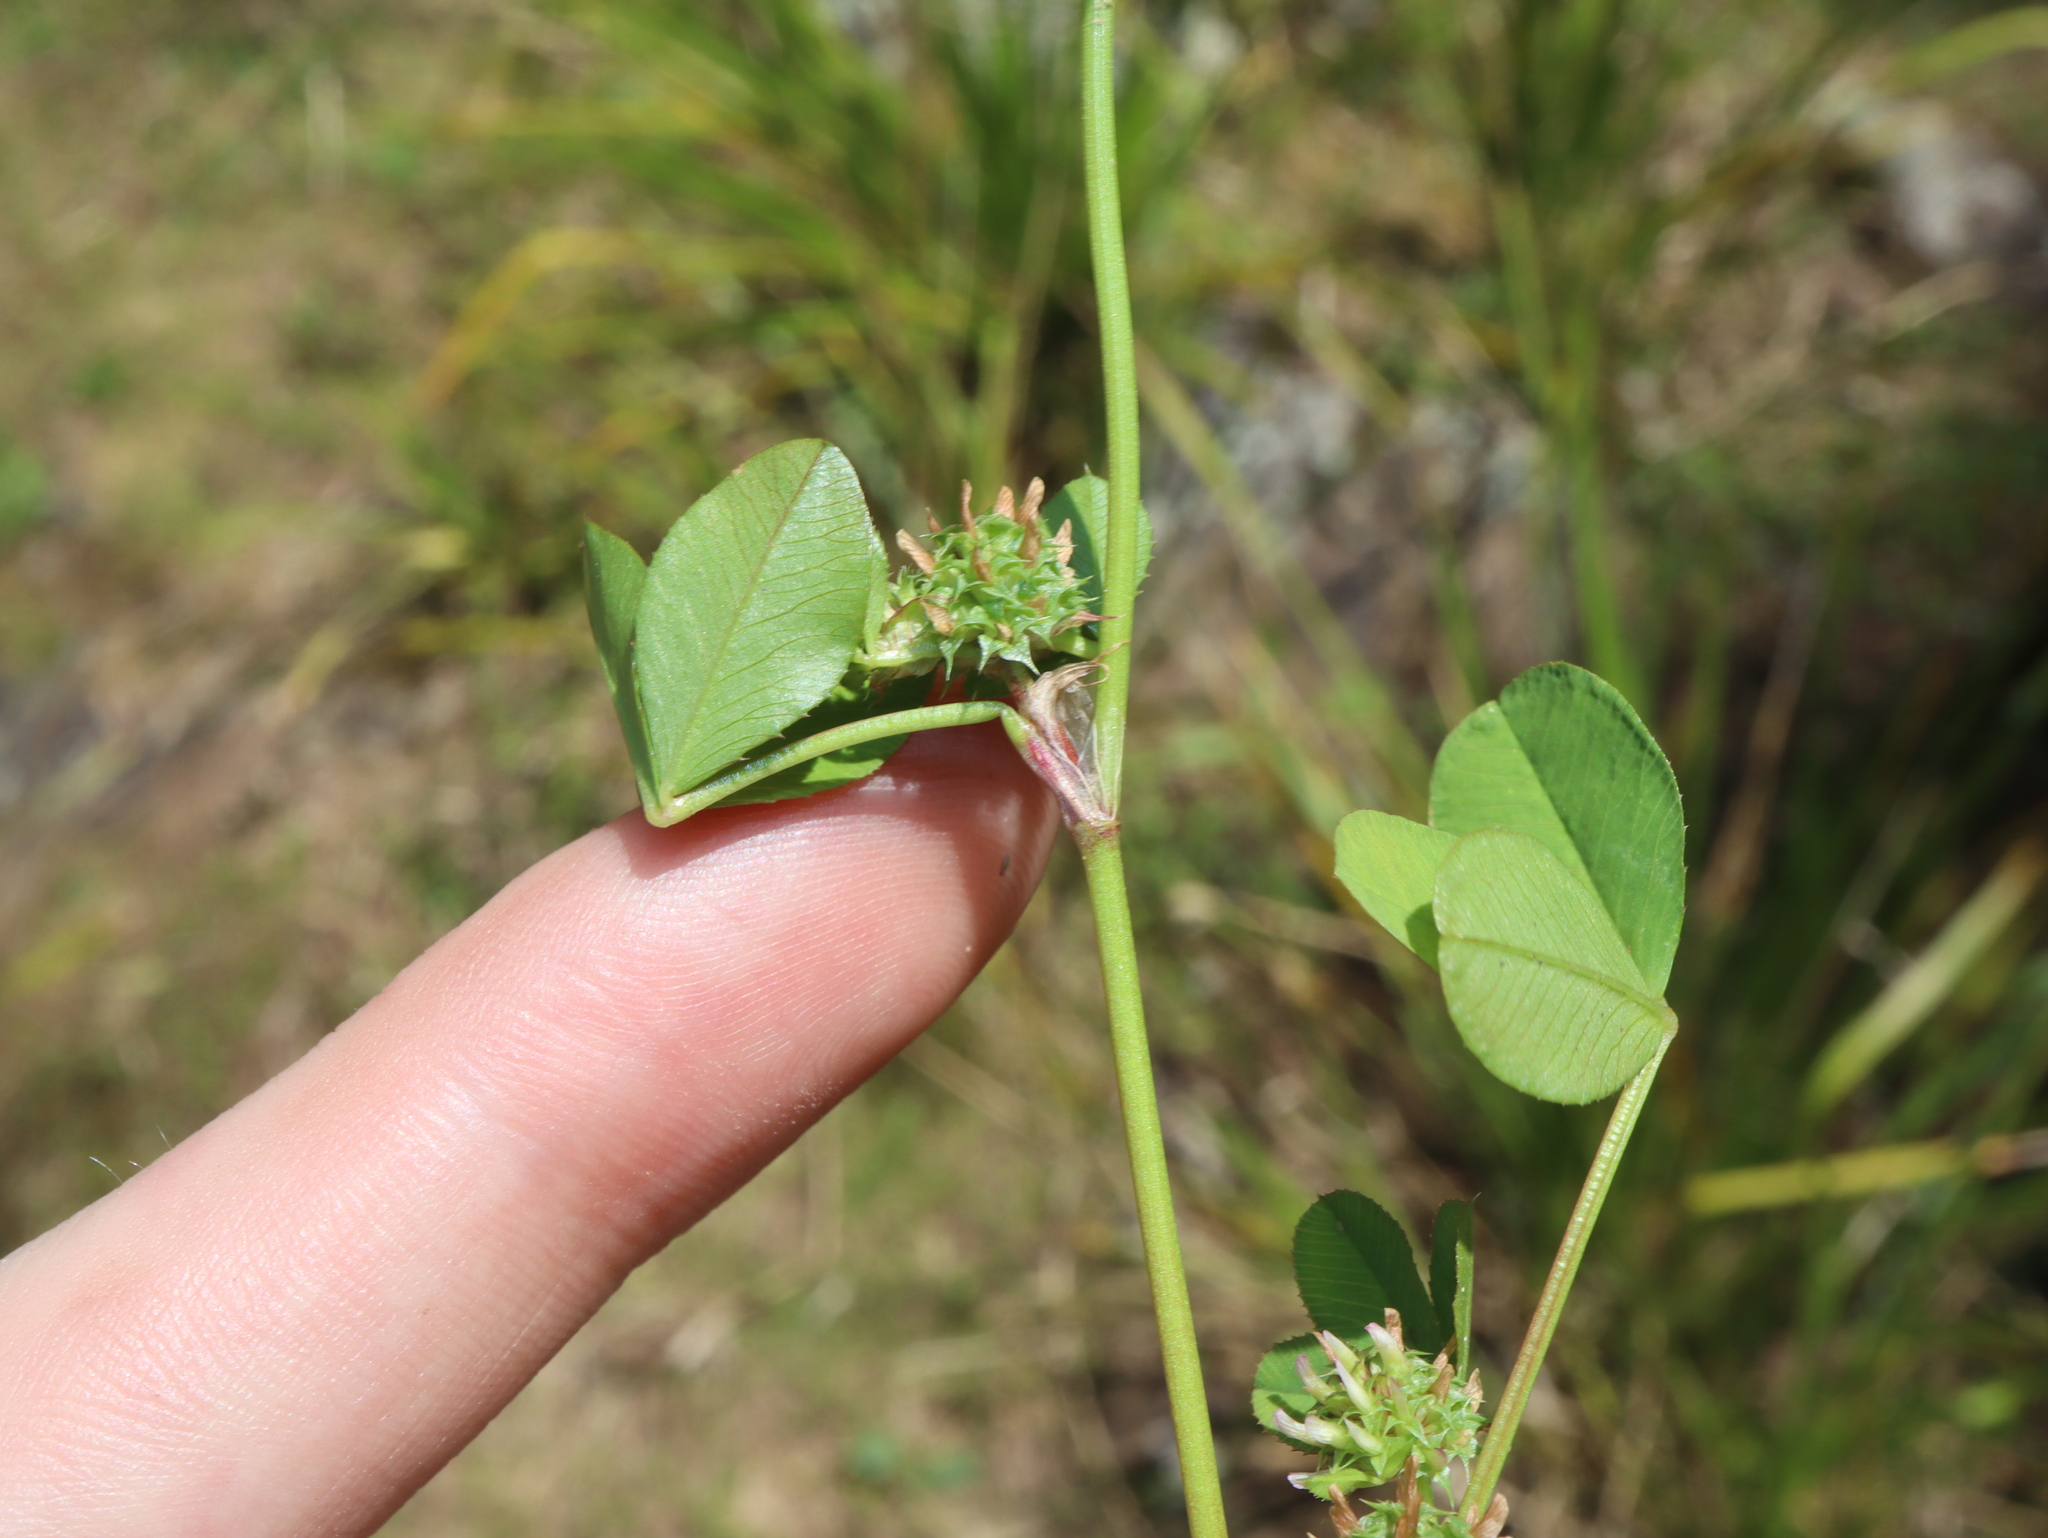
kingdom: Plantae
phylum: Tracheophyta
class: Magnoliopsida
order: Fabales
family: Fabaceae
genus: Trifolium
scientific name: Trifolium glomeratum
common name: Clustered clover
